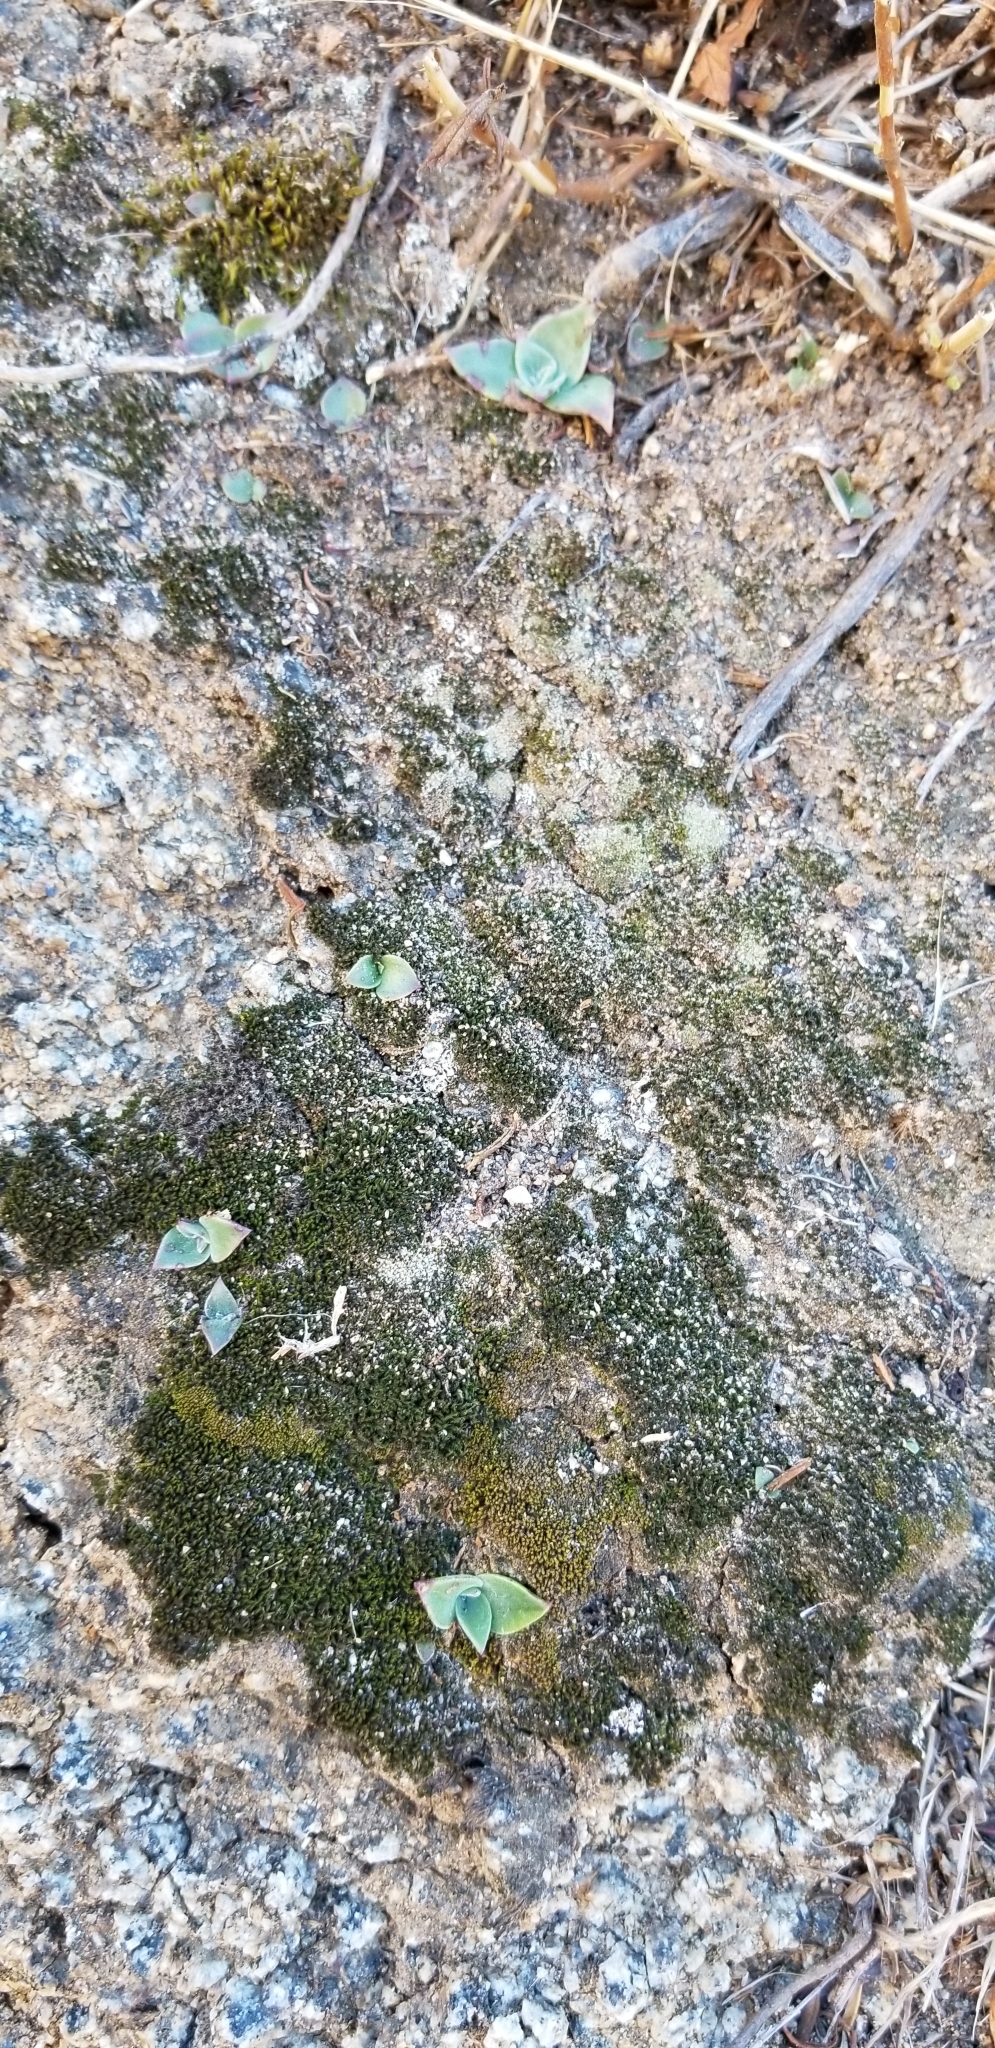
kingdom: Plantae
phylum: Tracheophyta
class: Magnoliopsida
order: Saxifragales
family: Crassulaceae
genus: Dudleya
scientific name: Dudleya pulverulenta
